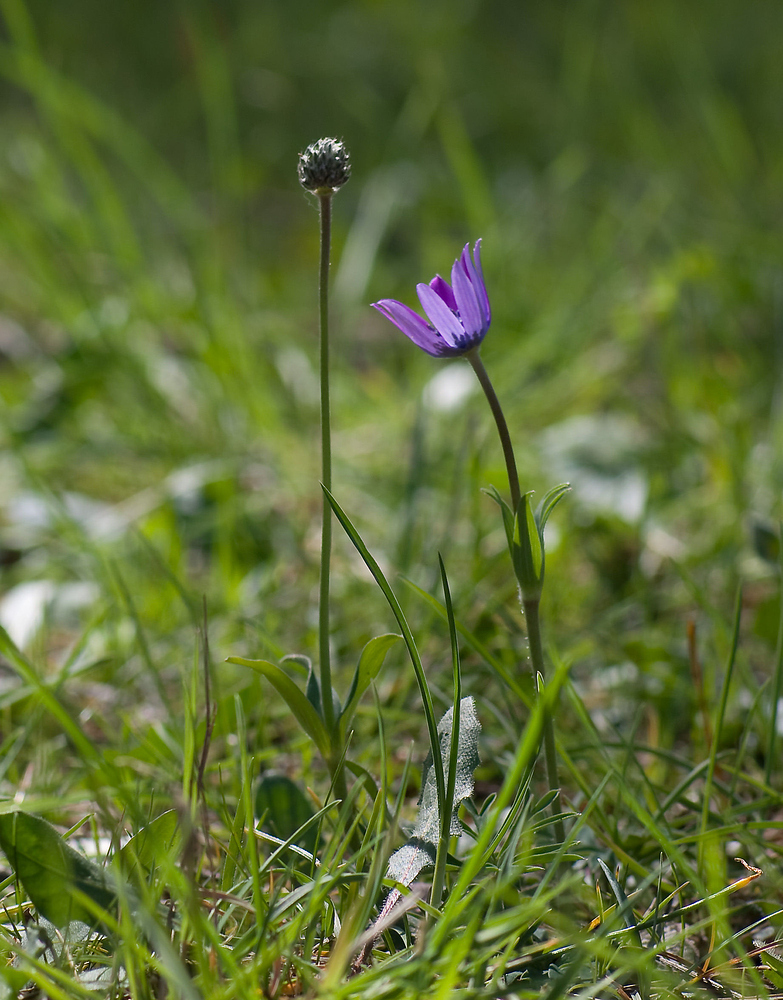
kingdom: Plantae
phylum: Tracheophyta
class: Magnoliopsida
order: Ranunculales
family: Ranunculaceae
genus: Anemone
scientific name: Anemone hortensis
